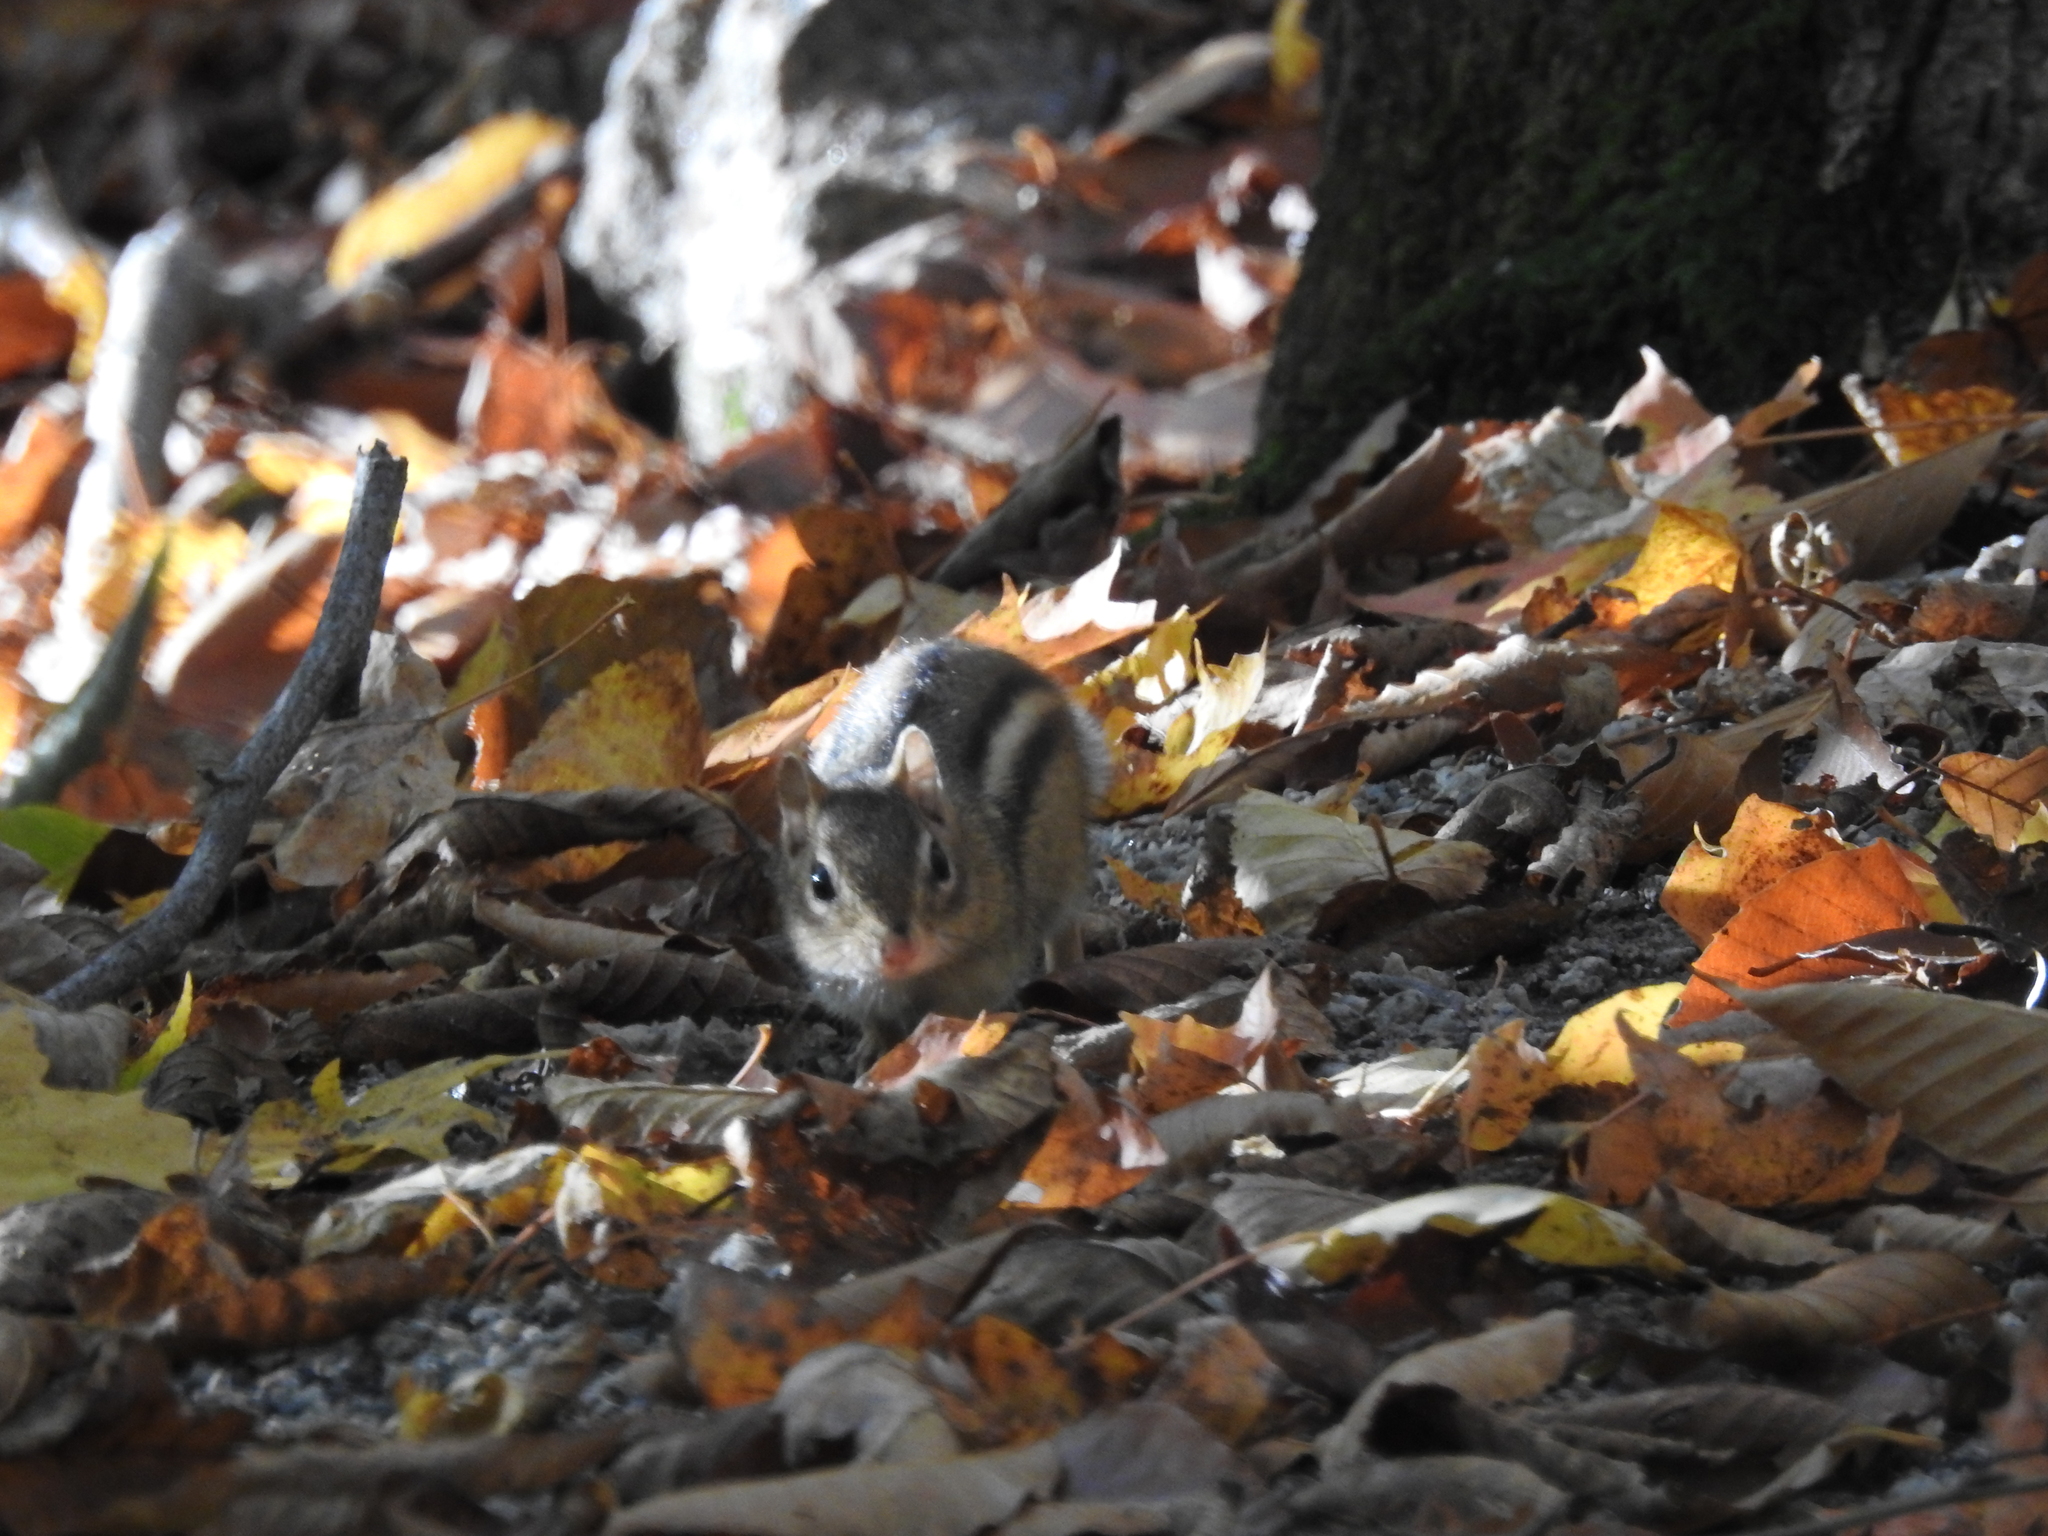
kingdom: Animalia
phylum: Chordata
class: Mammalia
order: Rodentia
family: Sciuridae
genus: Tamias
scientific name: Tamias striatus
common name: Eastern chipmunk
